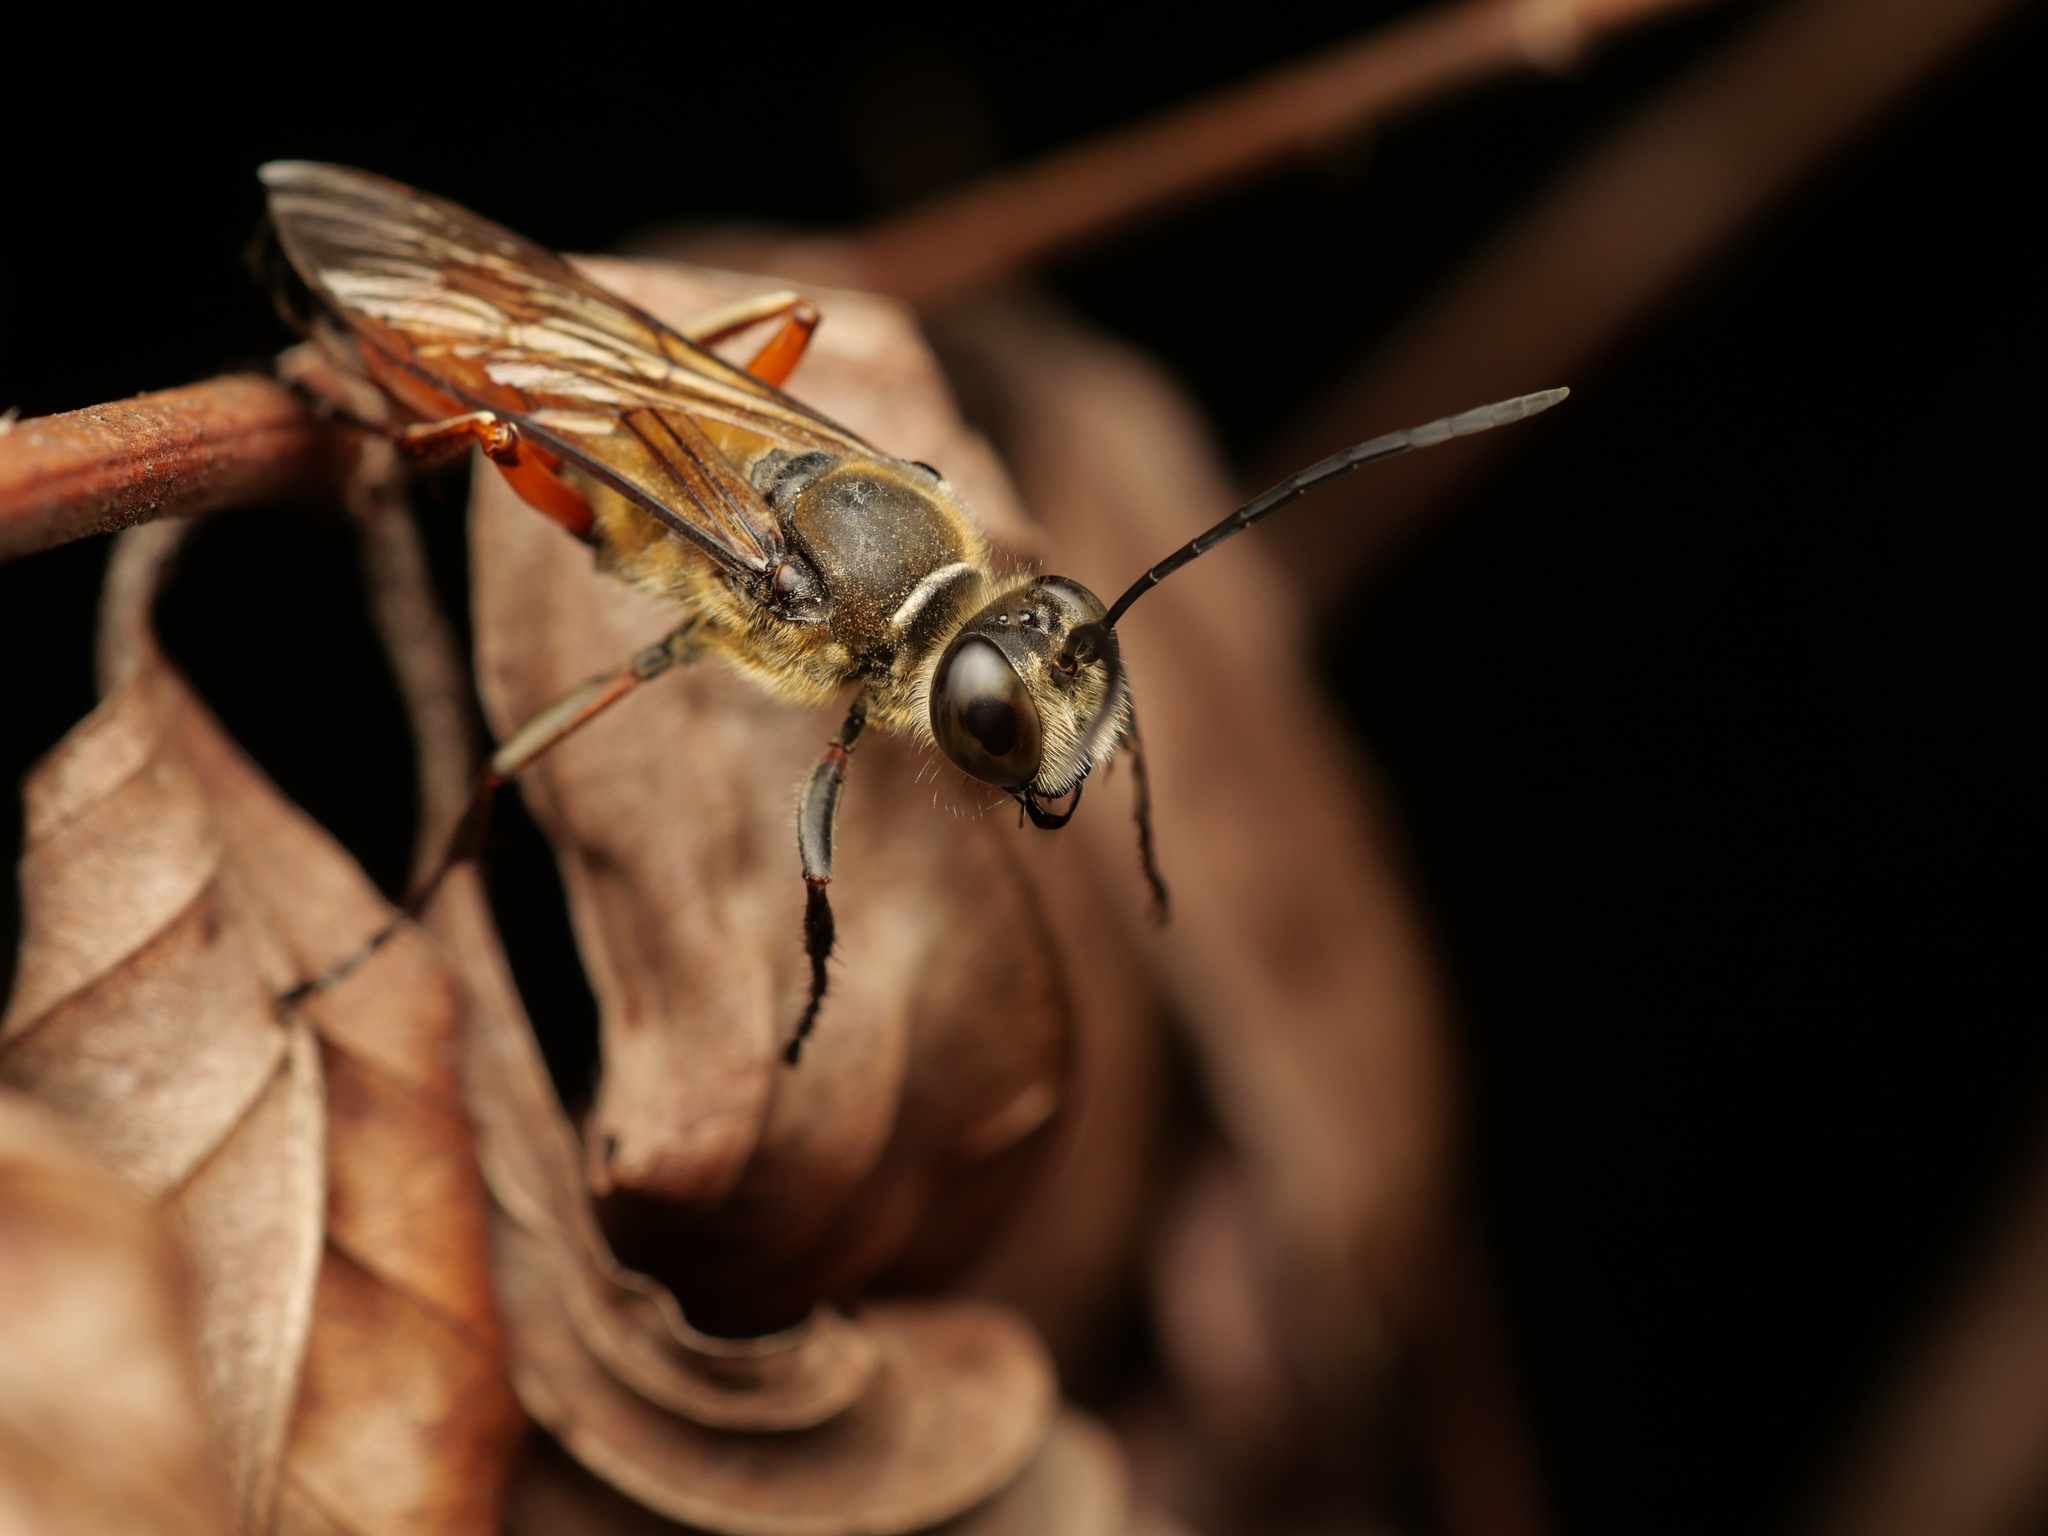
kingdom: Animalia
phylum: Arthropoda
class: Insecta
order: Hymenoptera
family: Sphecidae
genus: Sphex
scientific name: Sphex sericeus
